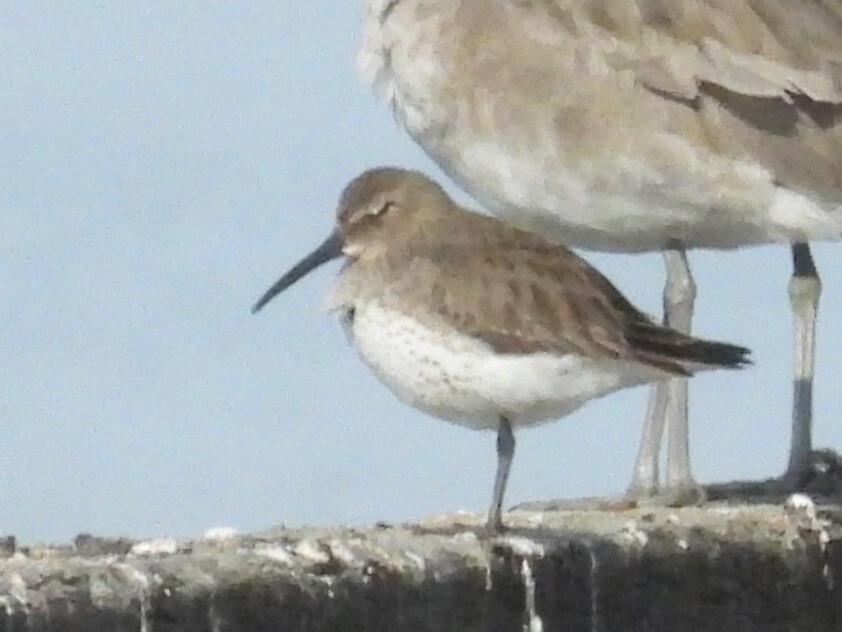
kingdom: Animalia
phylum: Chordata
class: Aves
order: Charadriiformes
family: Scolopacidae
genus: Calidris
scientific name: Calidris alpina
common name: Dunlin
